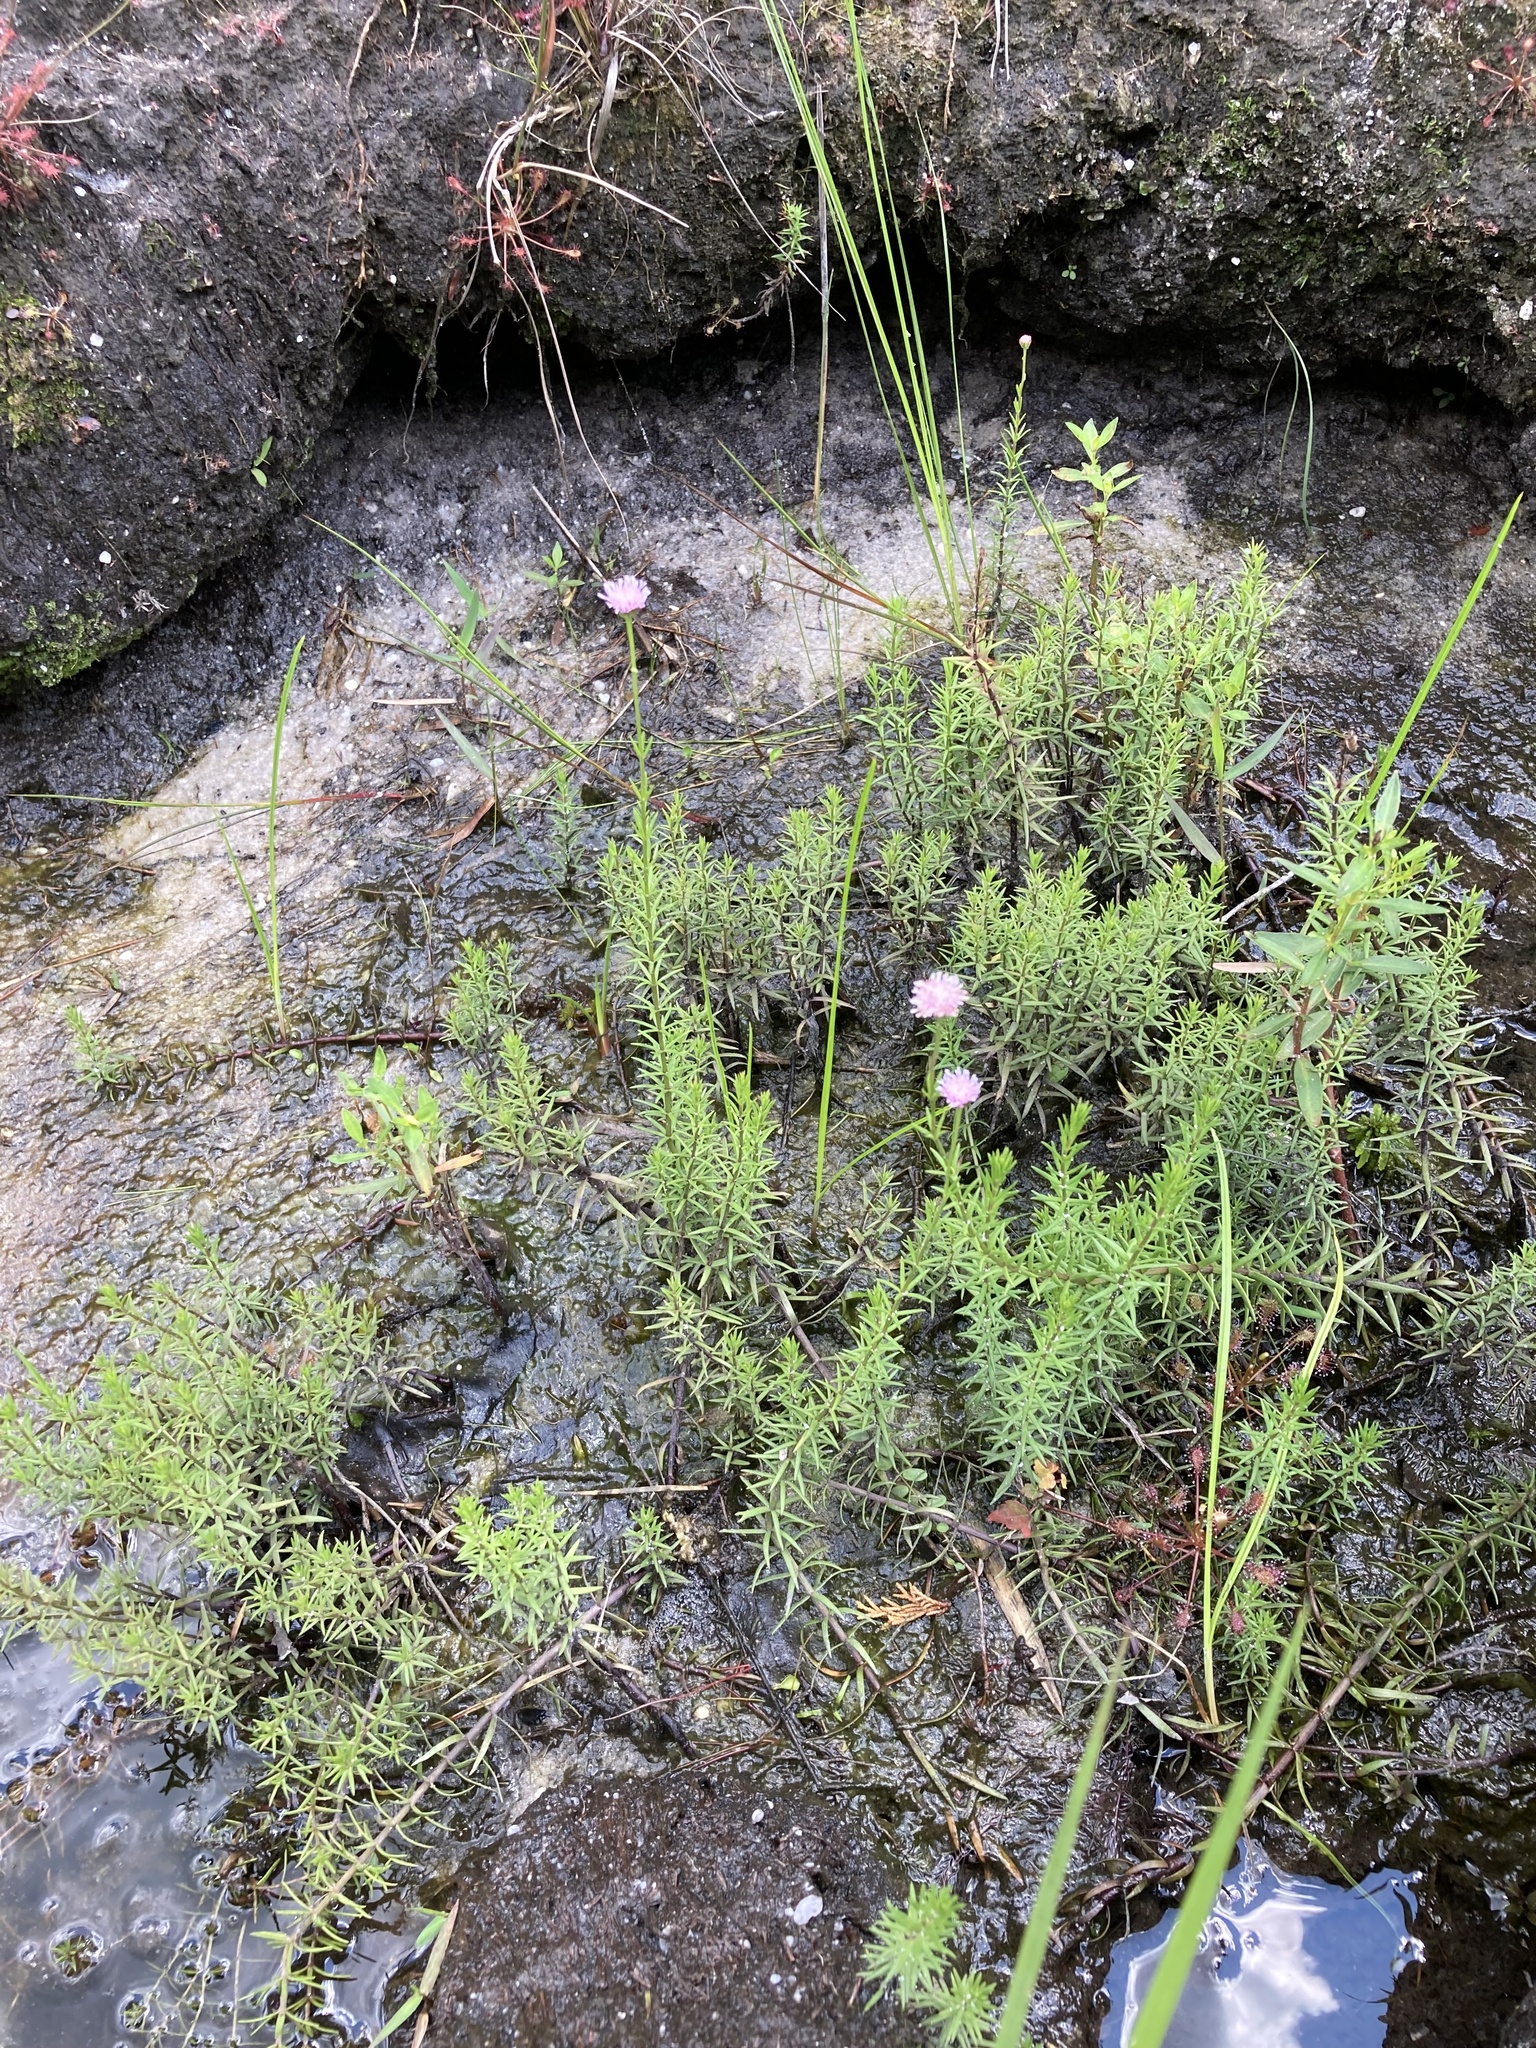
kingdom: Plantae
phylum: Tracheophyta
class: Magnoliopsida
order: Asterales
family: Asteraceae
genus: Sclerolepis
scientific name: Sclerolepis uniflora
